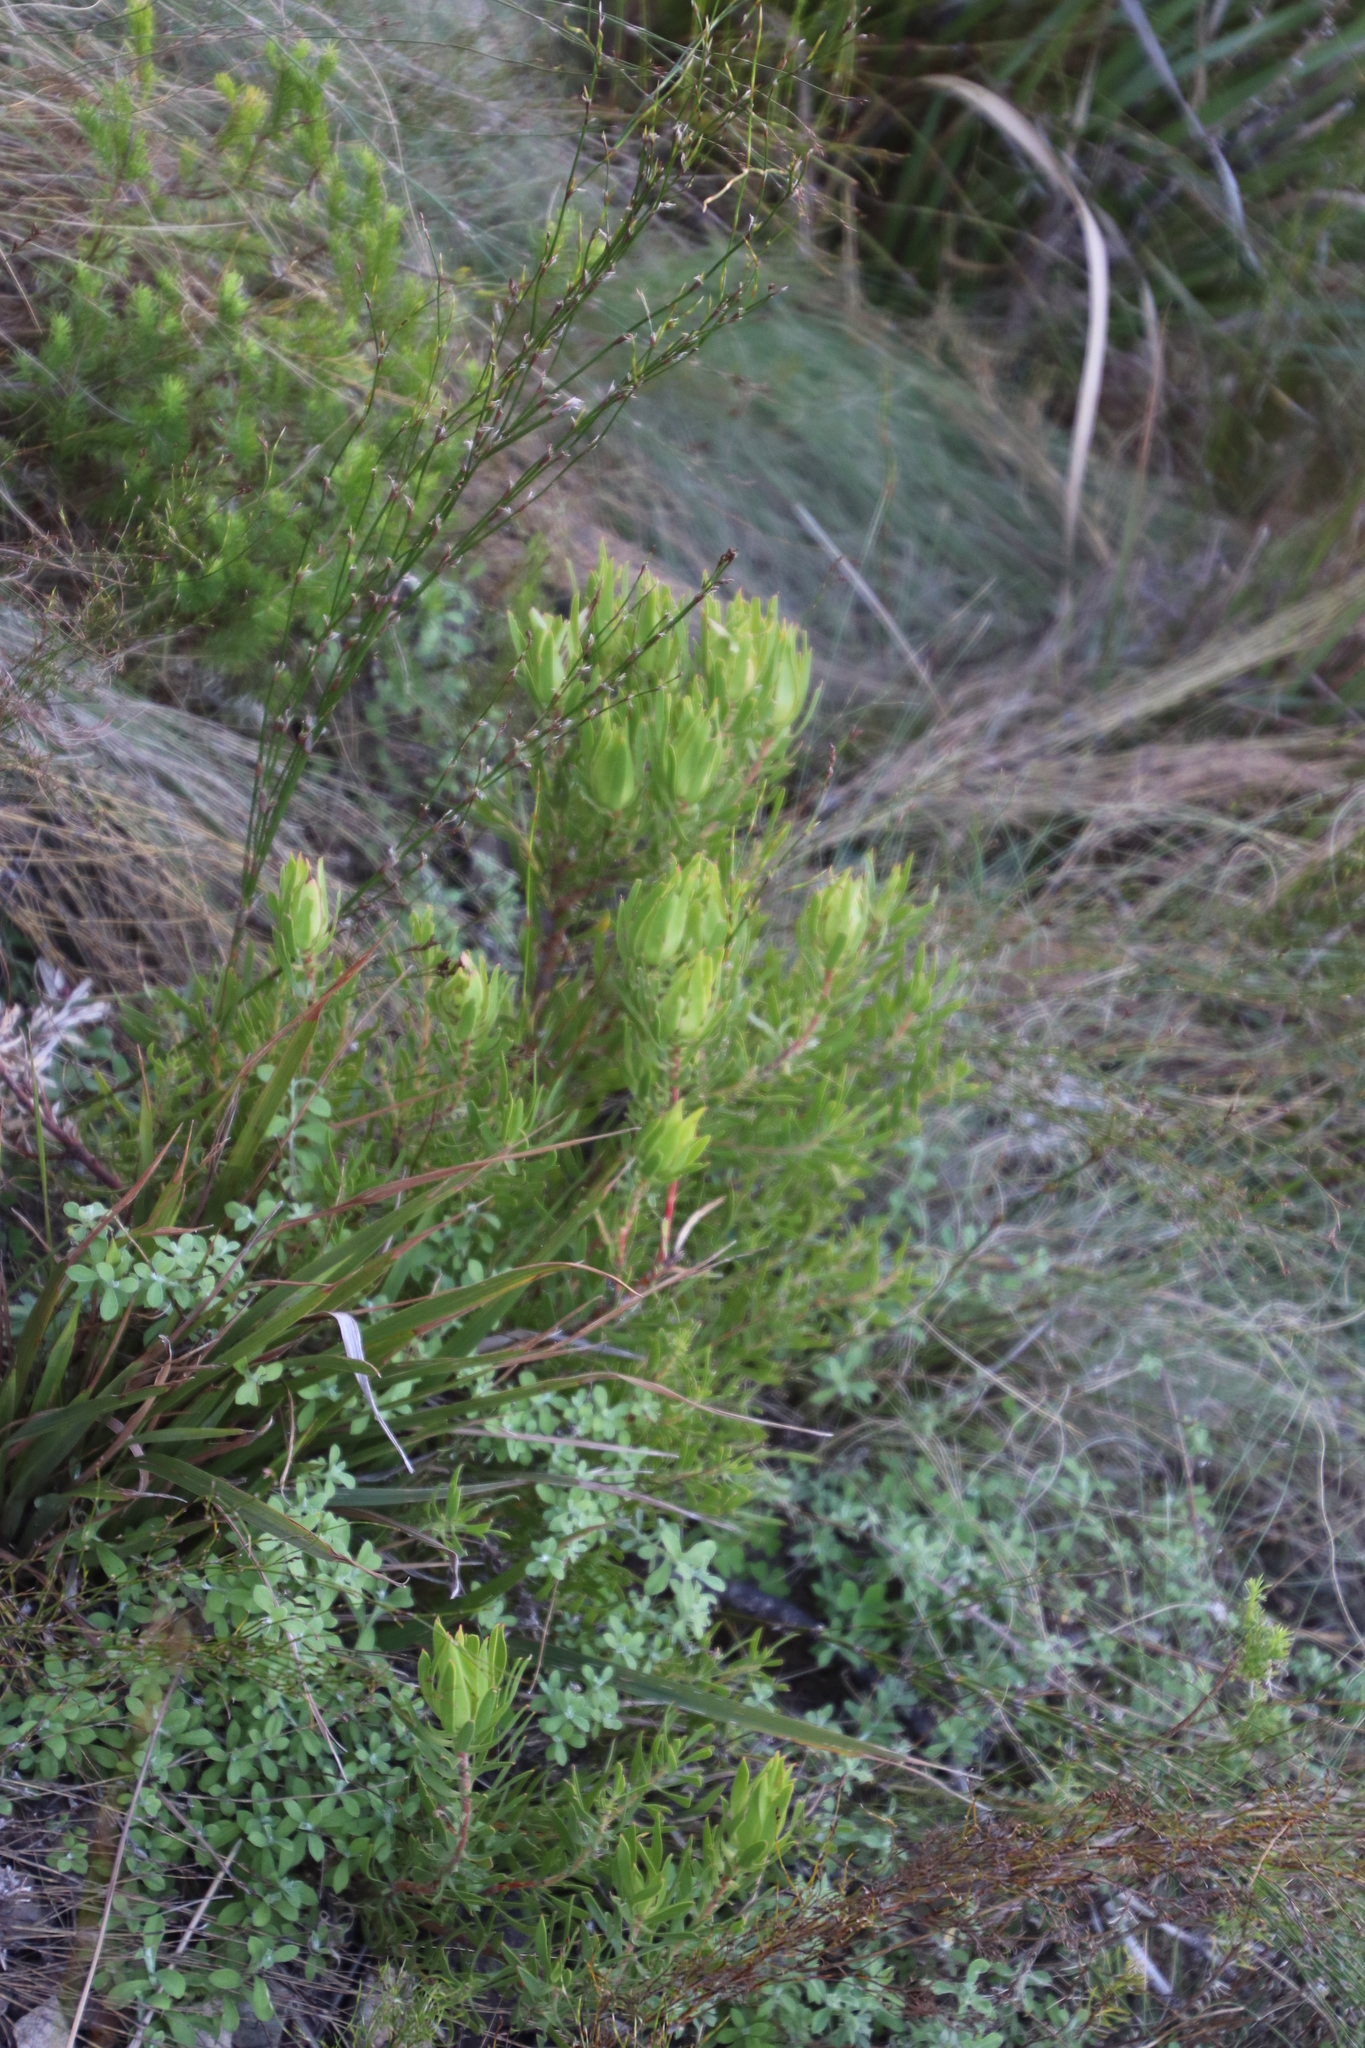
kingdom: Plantae
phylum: Tracheophyta
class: Magnoliopsida
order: Proteales
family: Proteaceae
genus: Leucadendron
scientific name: Leucadendron spissifolium
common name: Spear-leaf conebush
